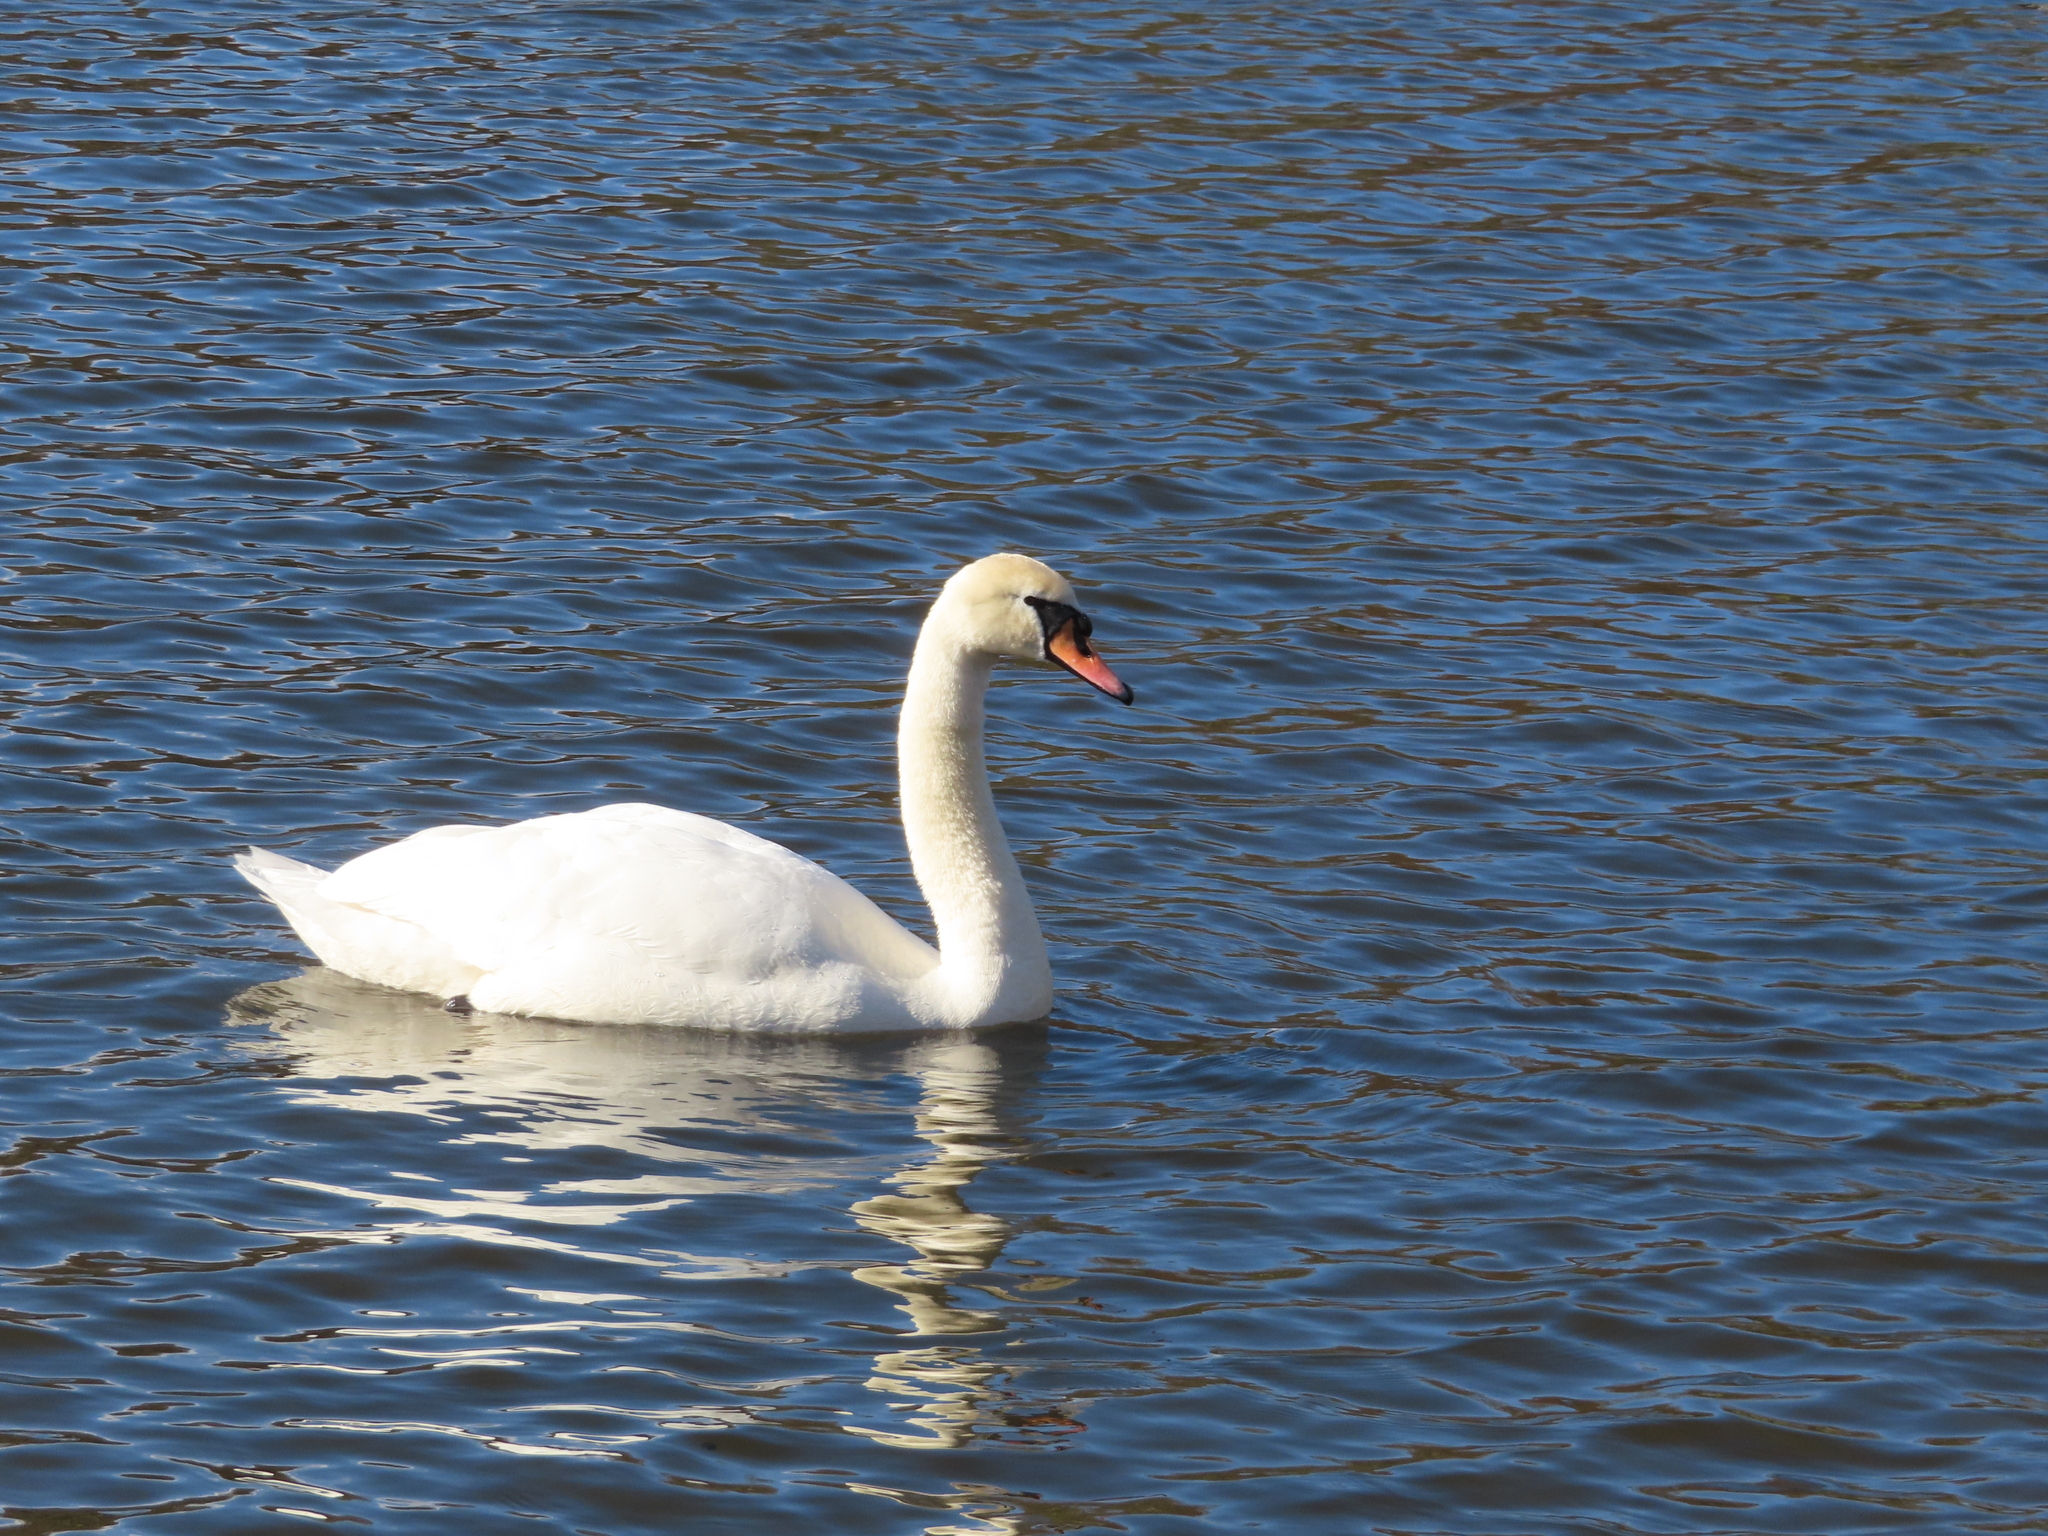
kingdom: Animalia
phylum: Chordata
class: Aves
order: Anseriformes
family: Anatidae
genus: Cygnus
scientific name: Cygnus olor
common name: Mute swan
